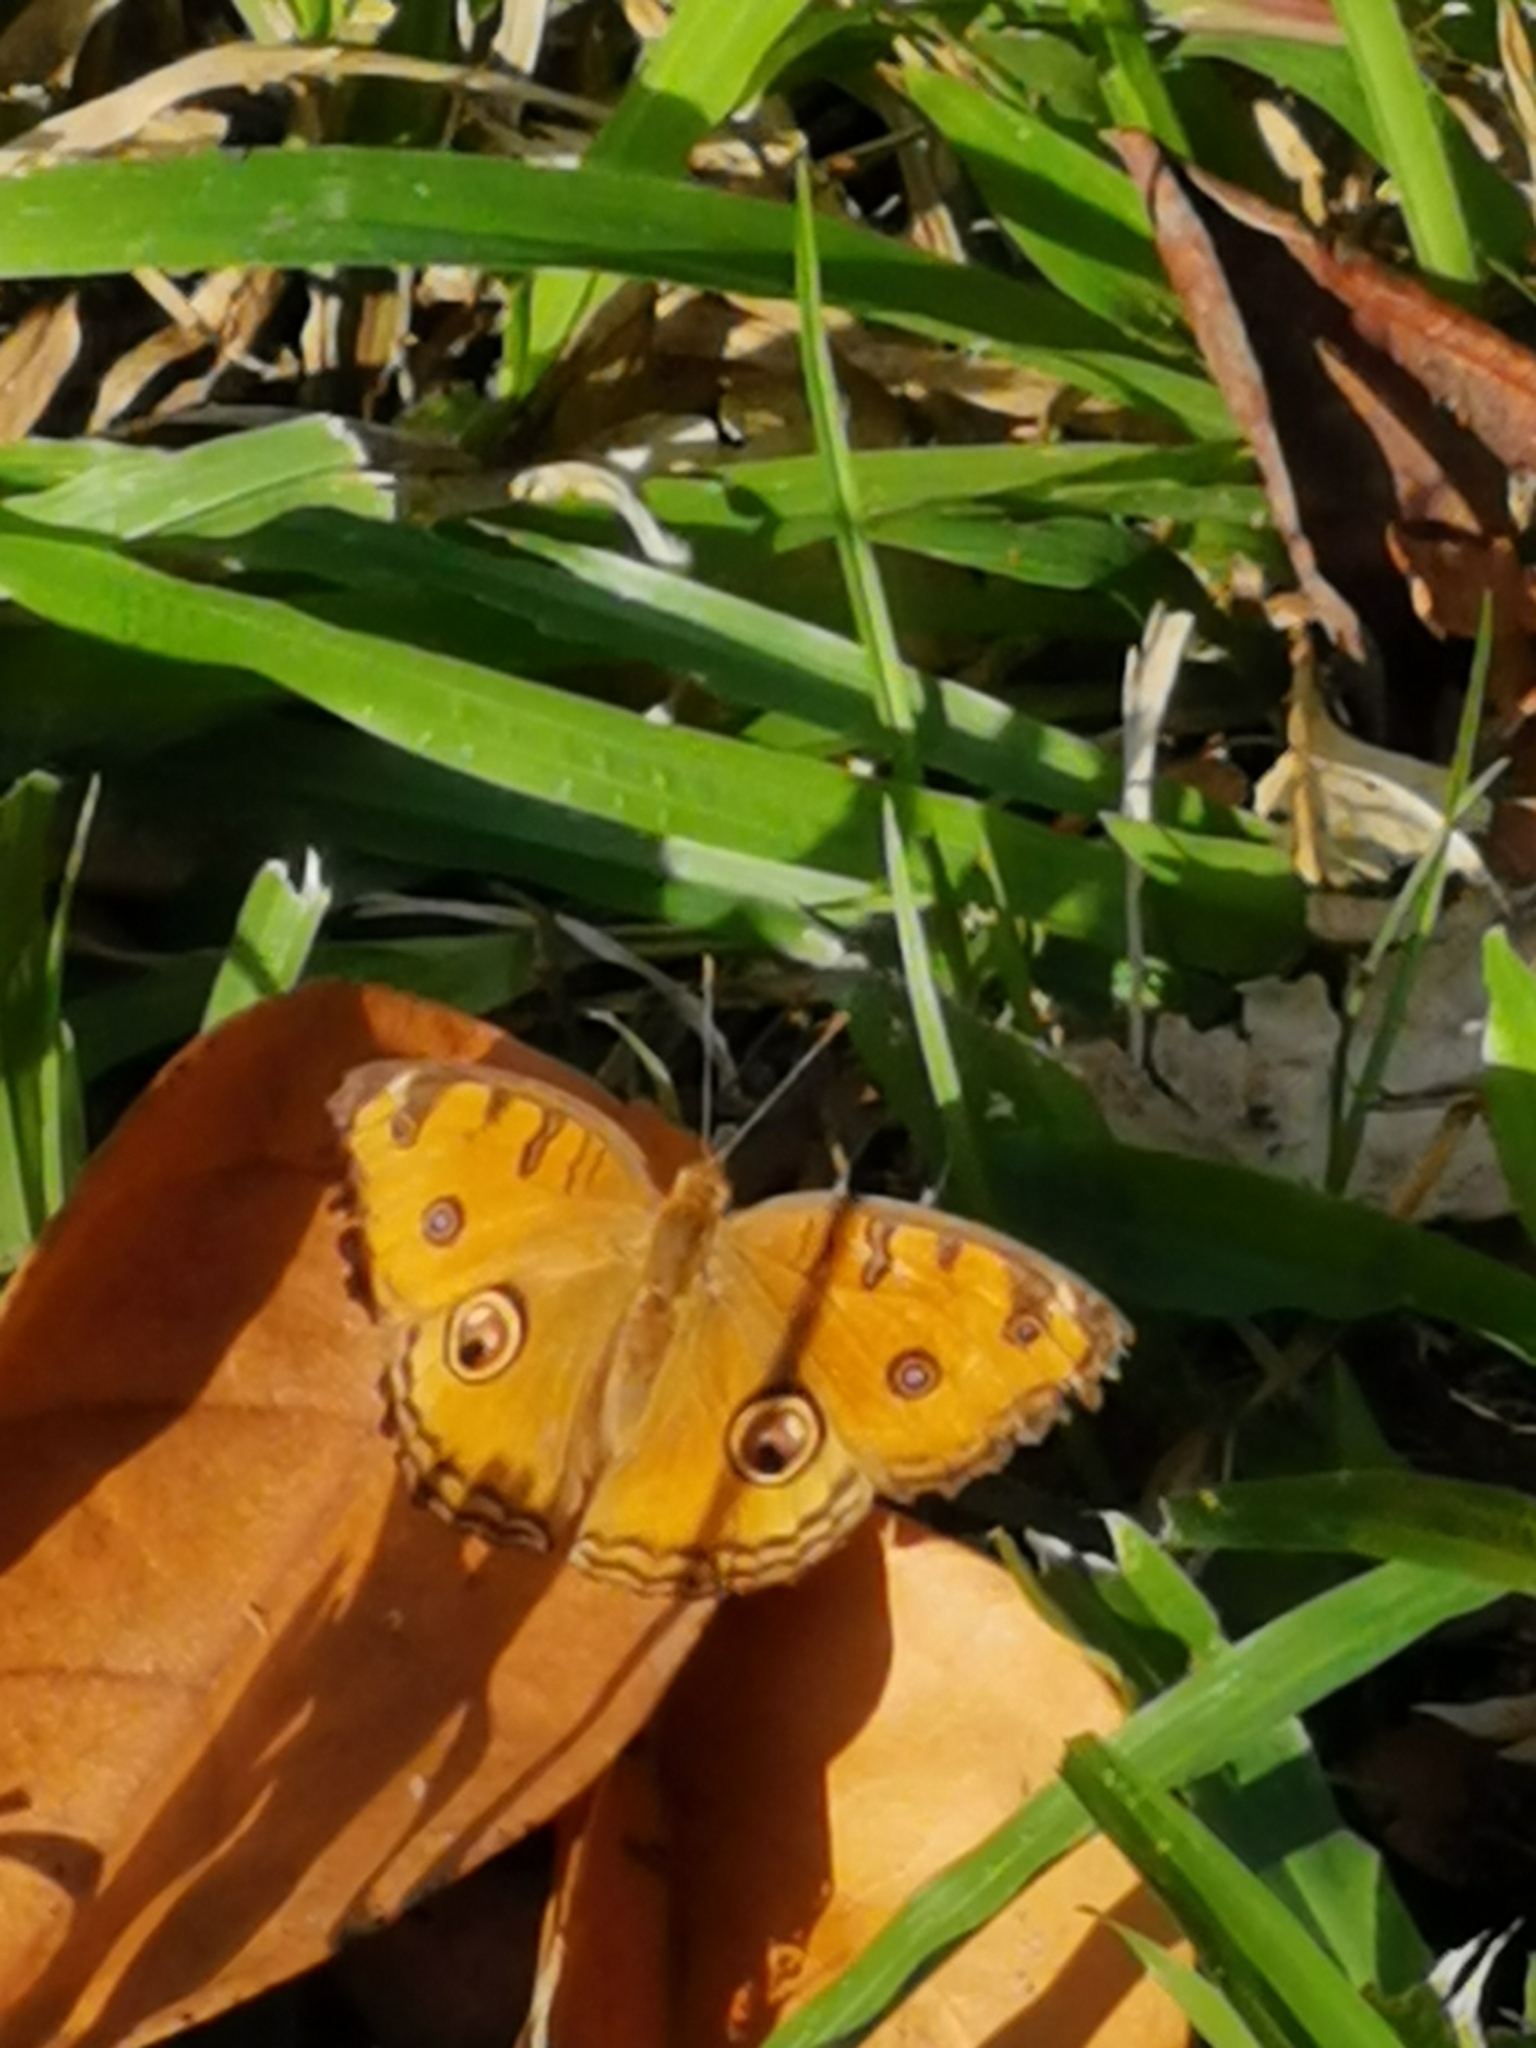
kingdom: Animalia
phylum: Arthropoda
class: Insecta
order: Lepidoptera
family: Nymphalidae
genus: Junonia
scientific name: Junonia almana
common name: Peacock pansy
